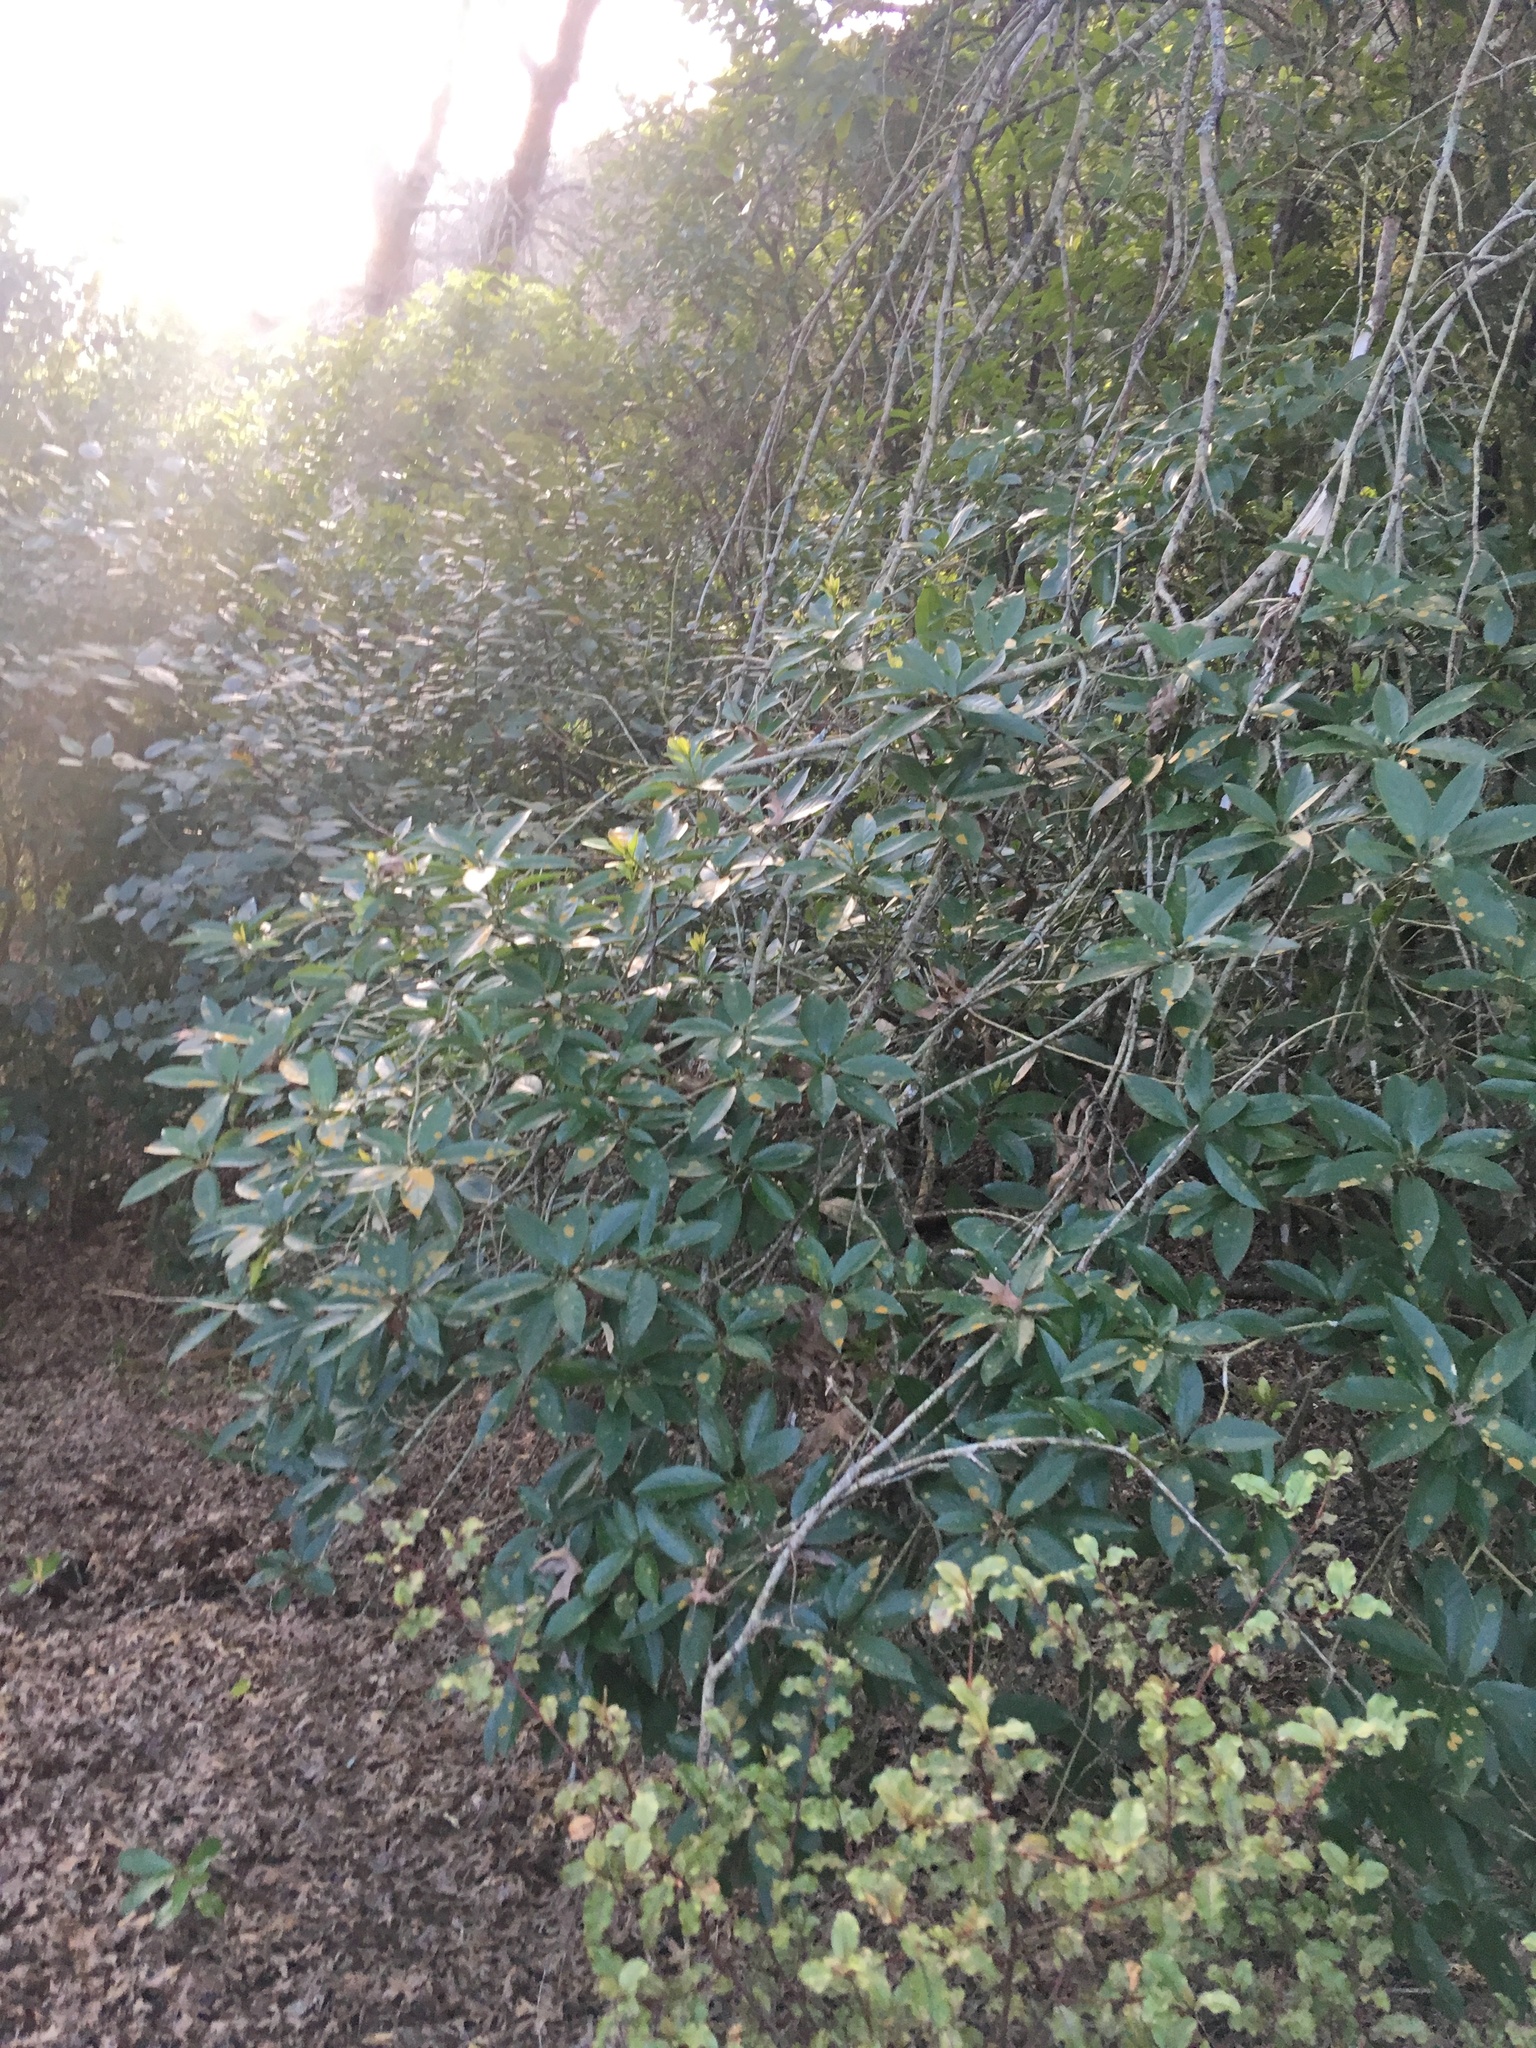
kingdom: Plantae
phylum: Tracheophyta
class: Magnoliopsida
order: Malpighiales
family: Violaceae
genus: Melicytus
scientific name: Melicytus ramiflorus
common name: Mahoe
